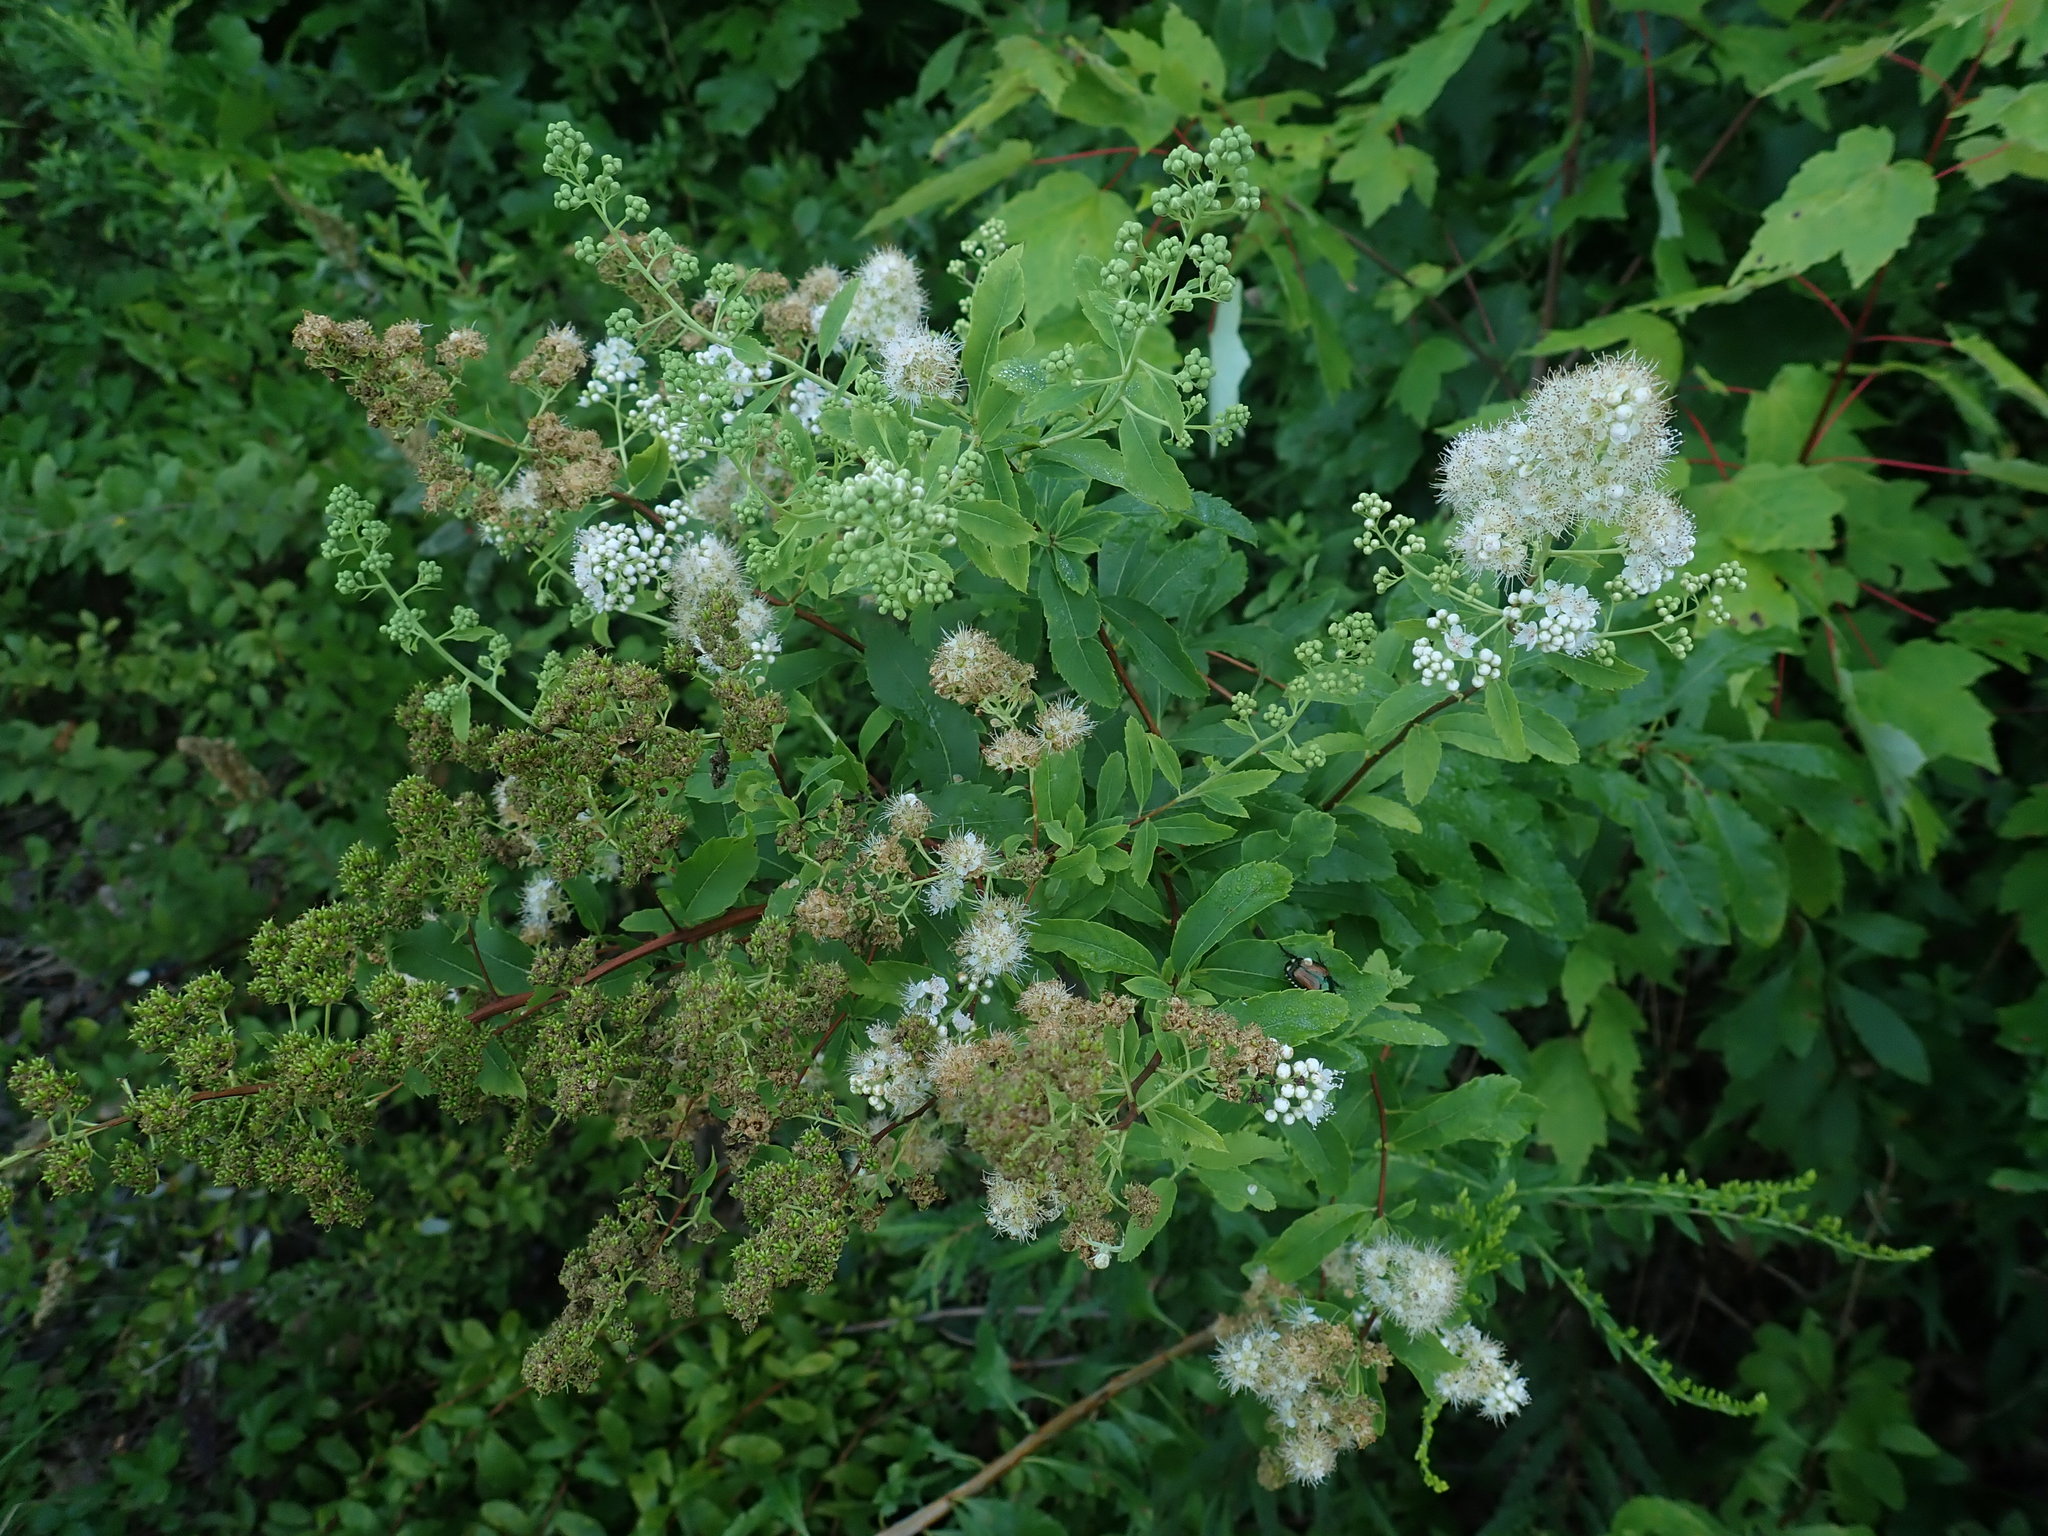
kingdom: Plantae
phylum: Tracheophyta
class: Magnoliopsida
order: Rosales
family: Rosaceae
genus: Spiraea
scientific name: Spiraea alba
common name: Pale bridewort
